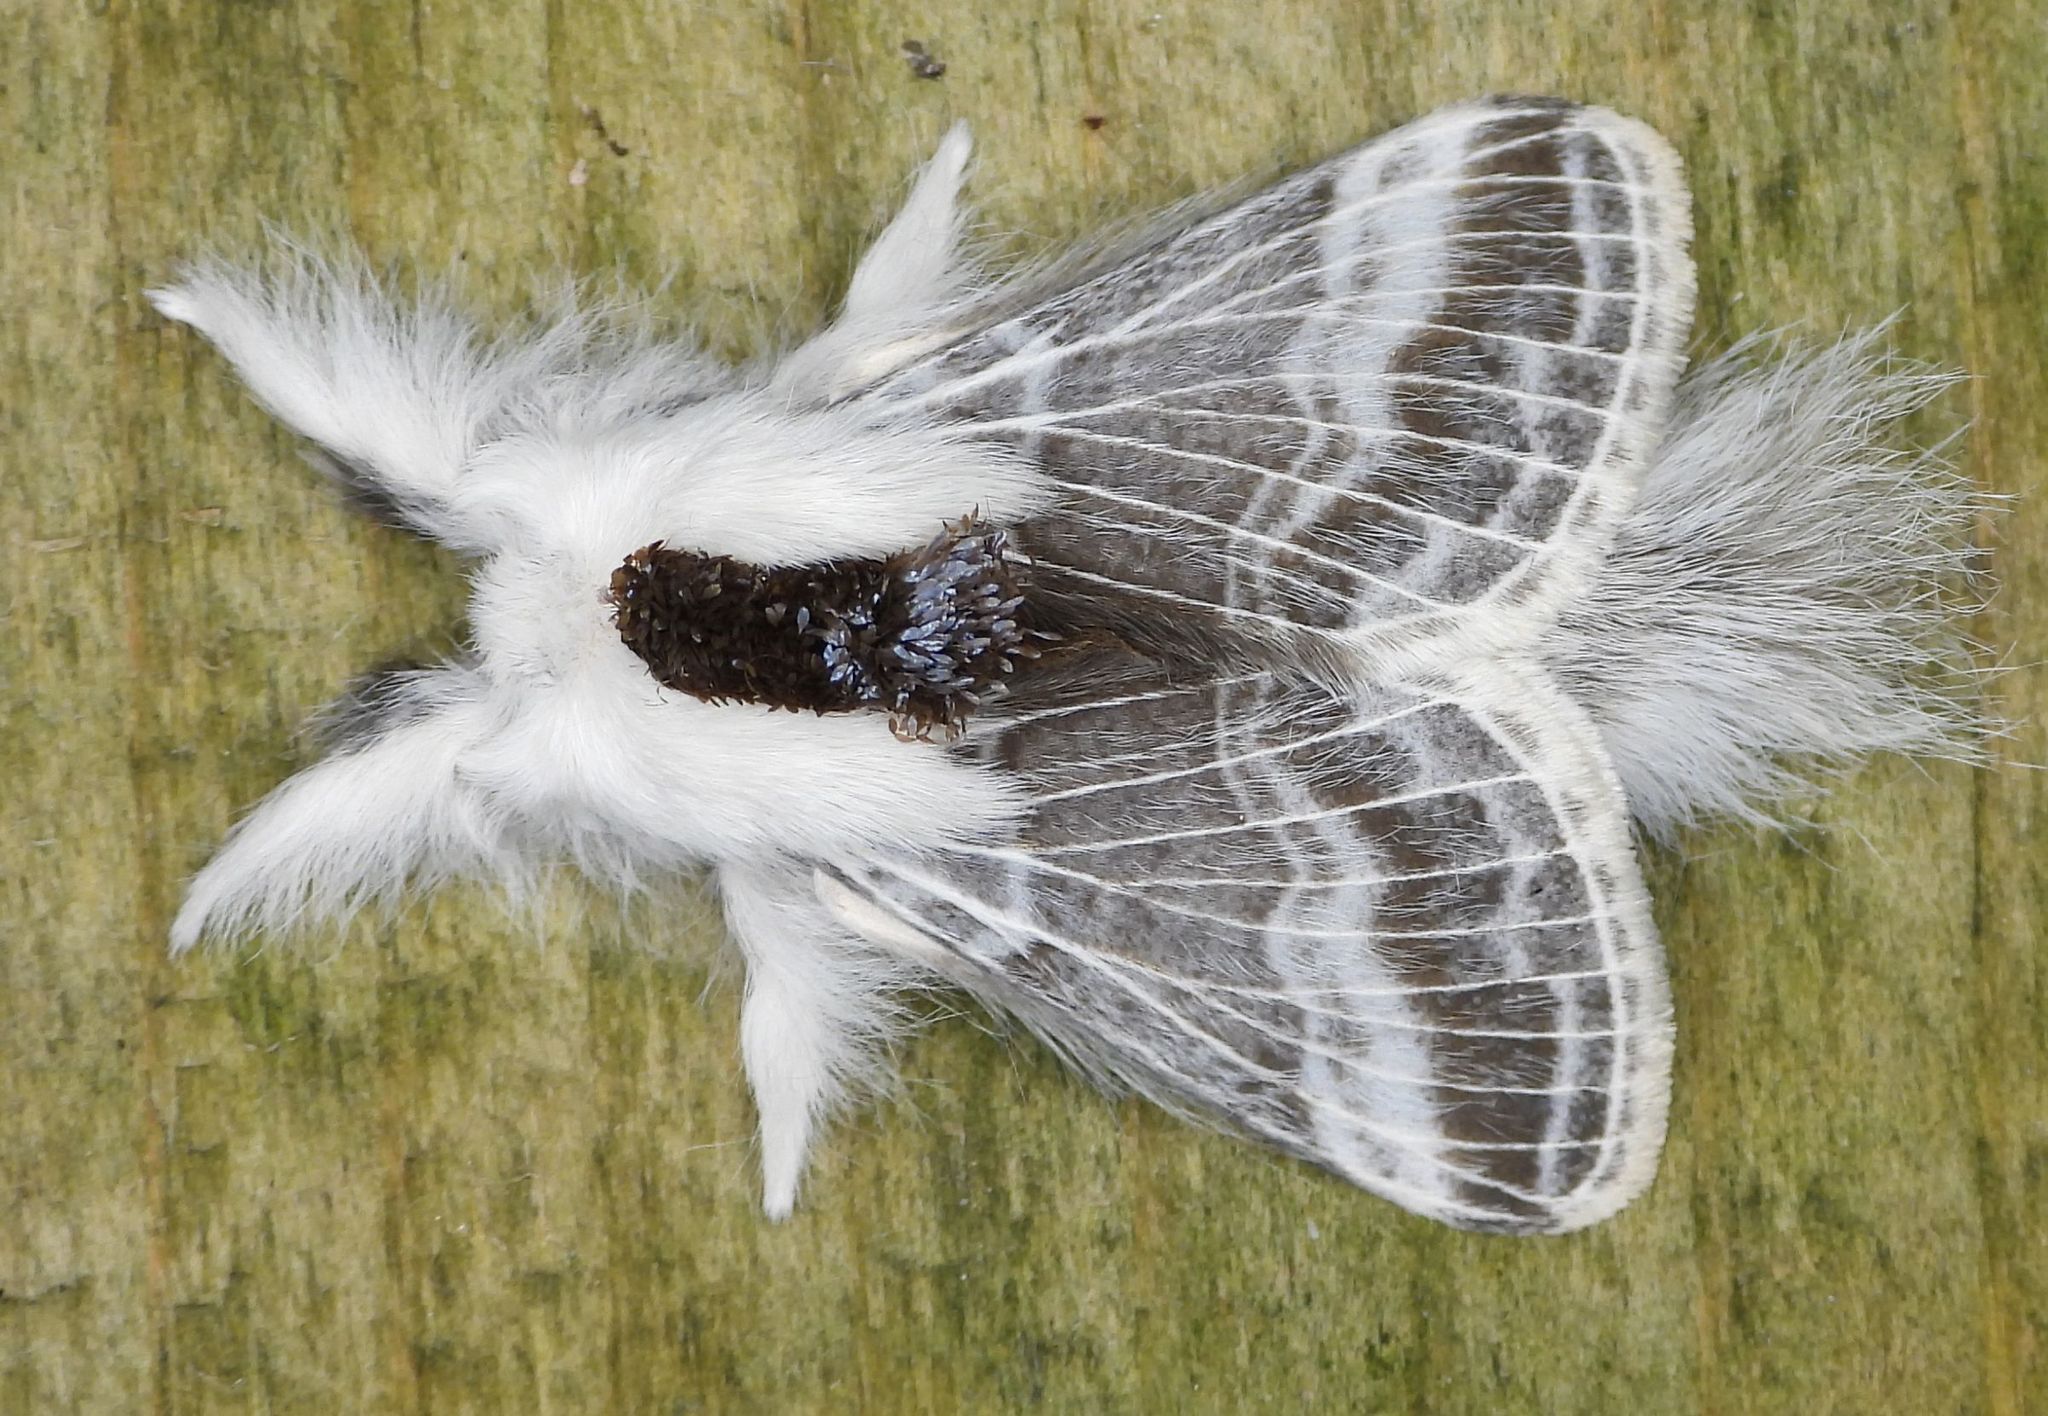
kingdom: Animalia
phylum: Arthropoda
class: Insecta
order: Lepidoptera
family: Lasiocampidae
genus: Tolype
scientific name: Tolype velleda
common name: Large tolype moth
